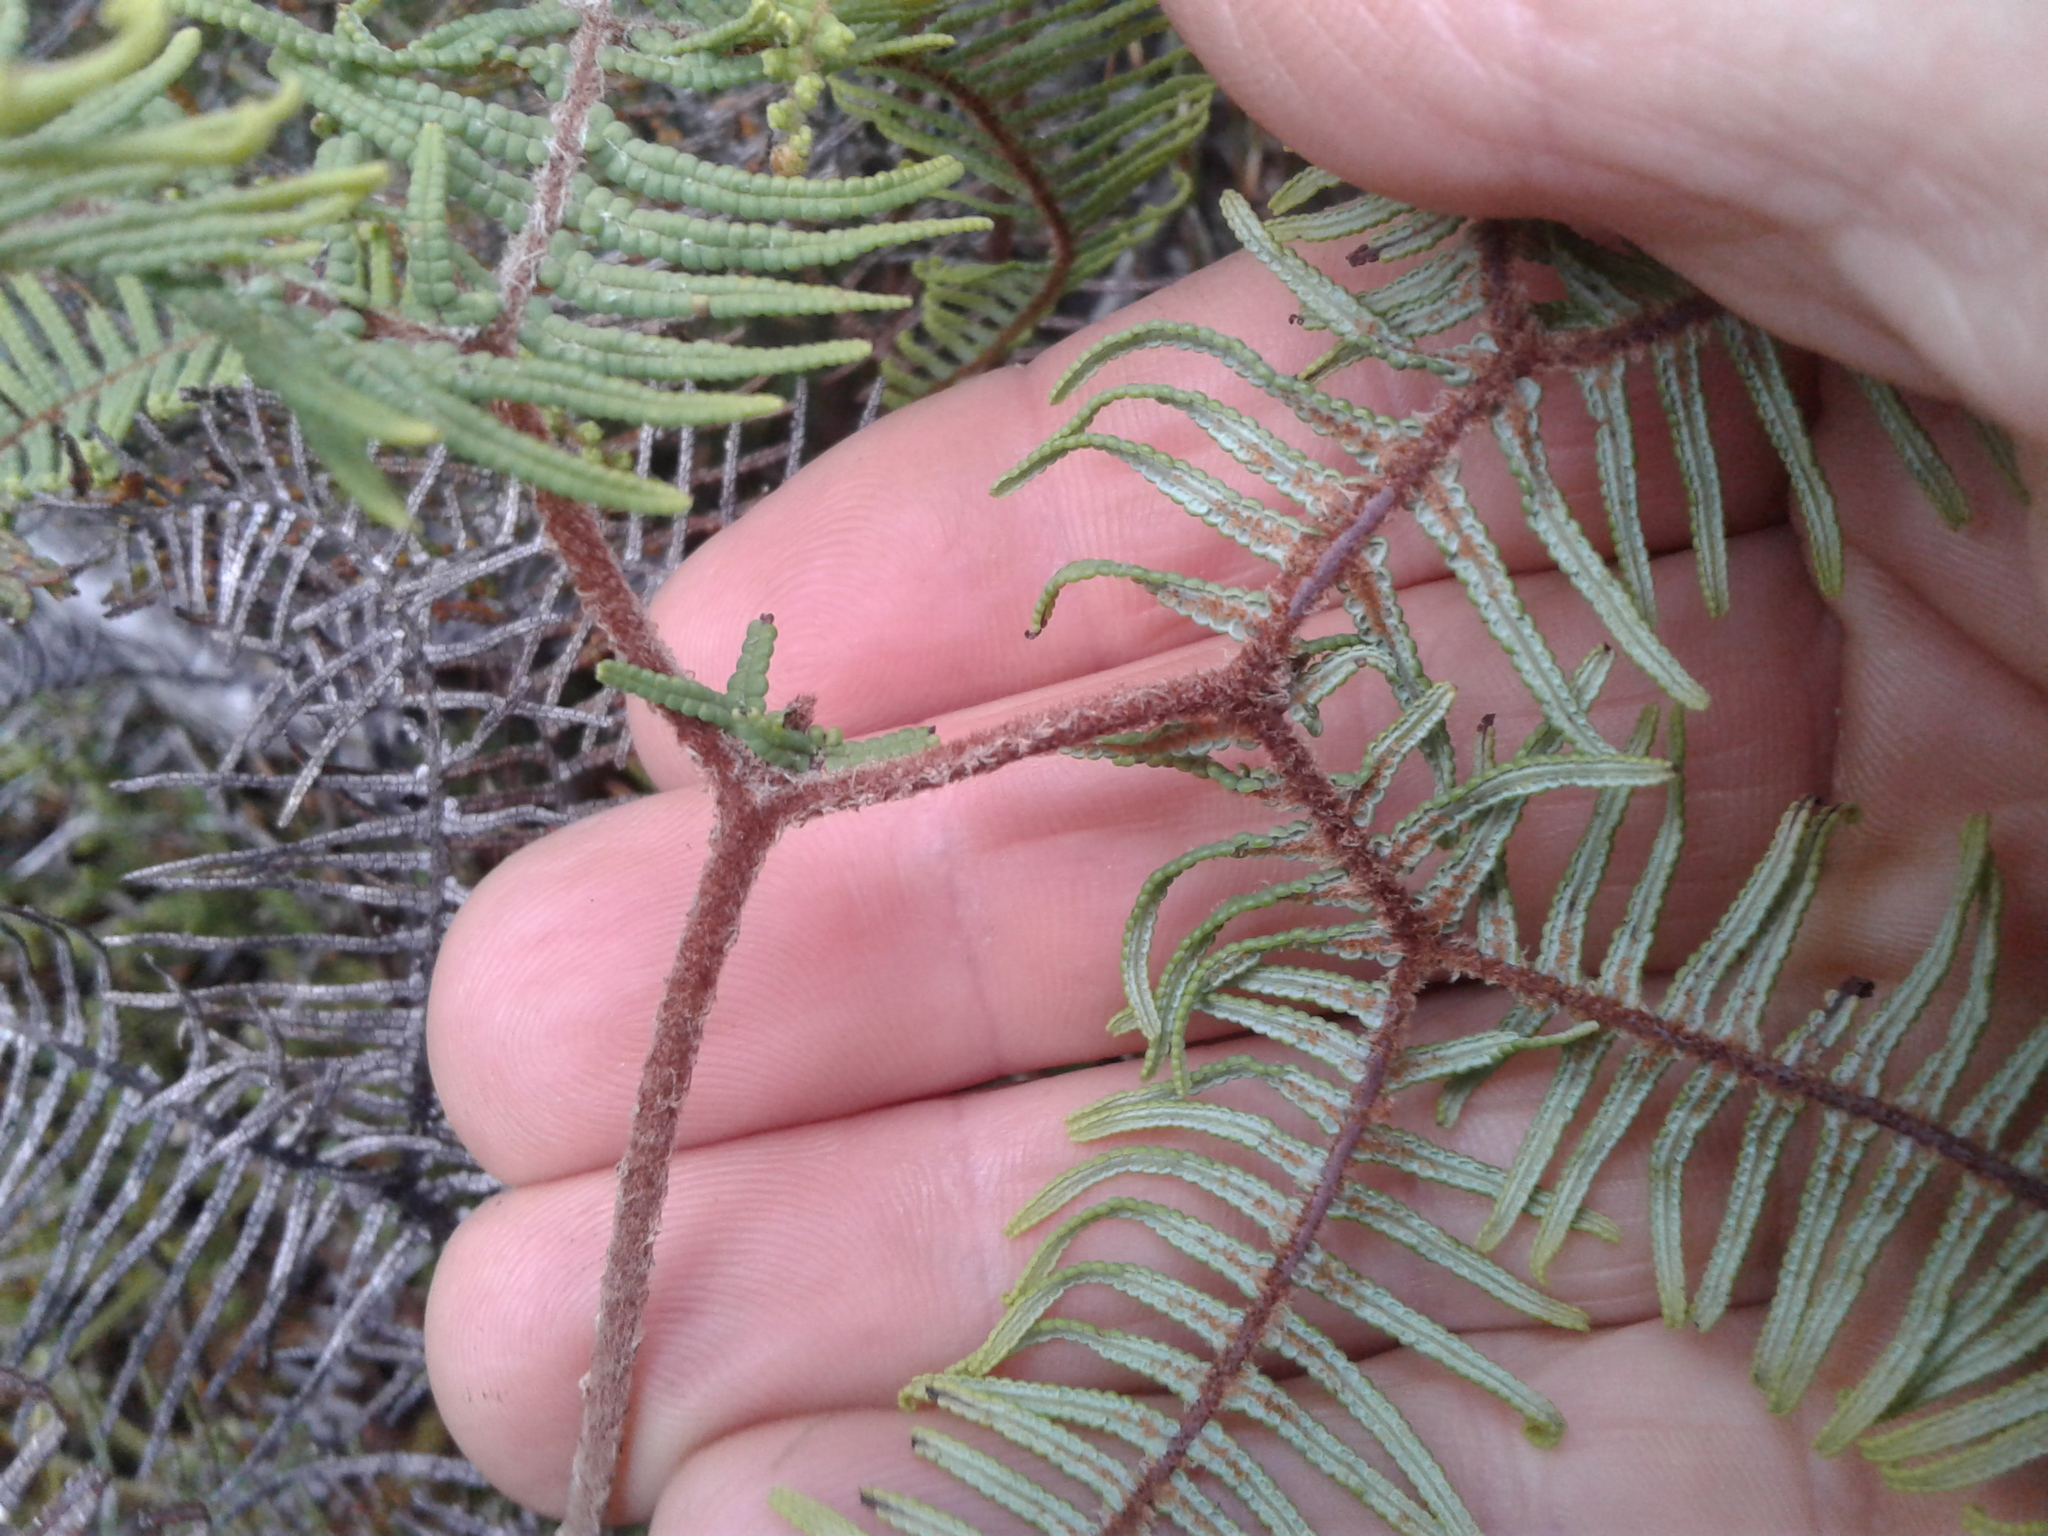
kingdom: Plantae
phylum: Tracheophyta
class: Polypodiopsida
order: Gleicheniales
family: Gleicheniaceae
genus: Gleichenia
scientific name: Gleichenia dicarpa
